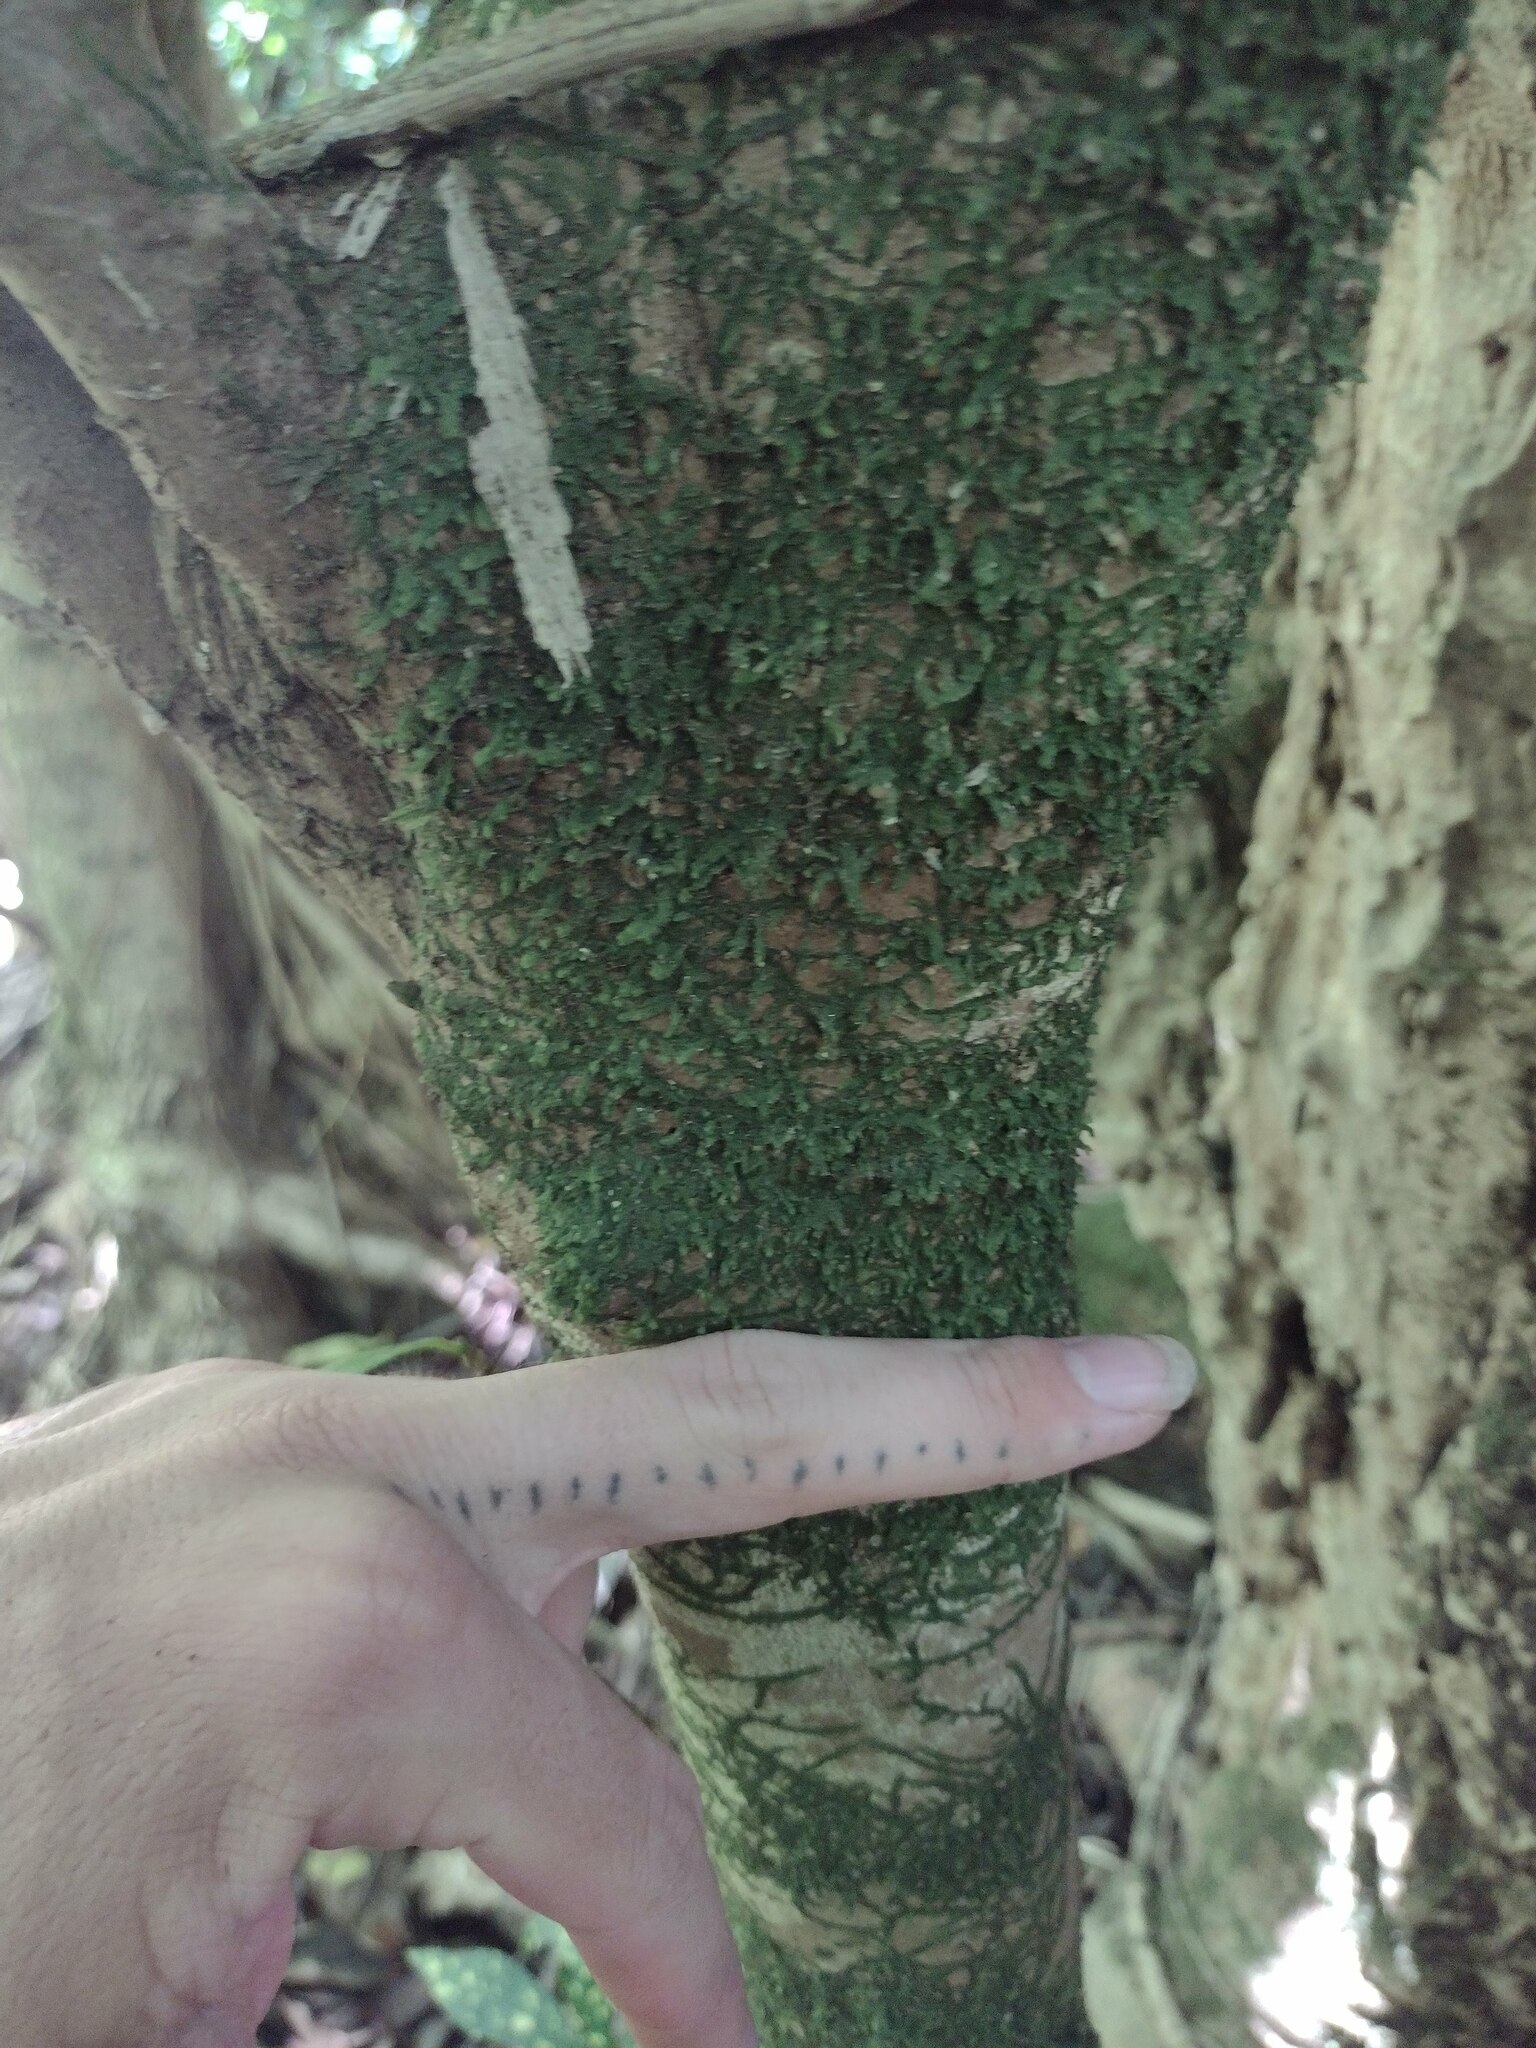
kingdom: Plantae
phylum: Tracheophyta
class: Magnoliopsida
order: Malpighiales
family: Euphorbiaceae
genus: Codiaeum
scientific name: Codiaeum variegatum
